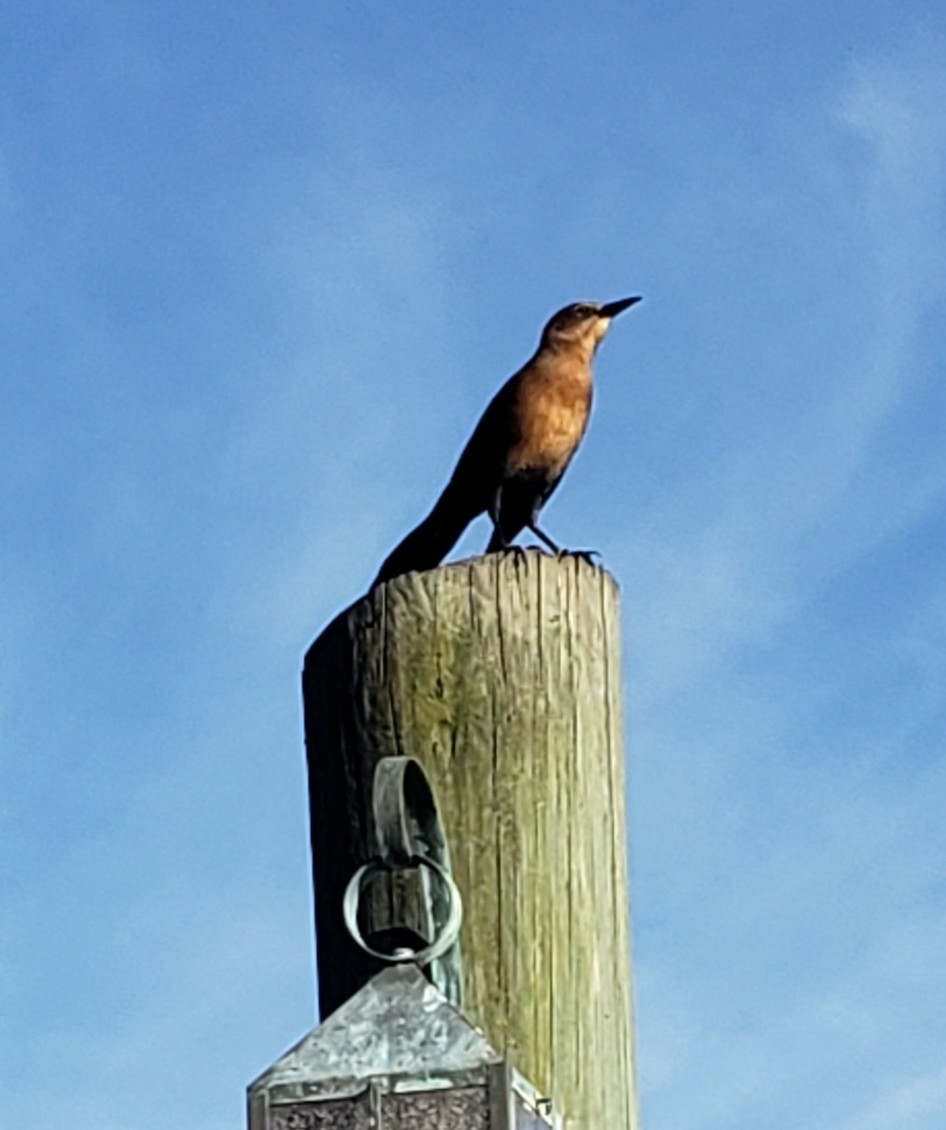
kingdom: Animalia
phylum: Chordata
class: Aves
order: Passeriformes
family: Icteridae
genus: Quiscalus
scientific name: Quiscalus major
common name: Boat-tailed grackle
